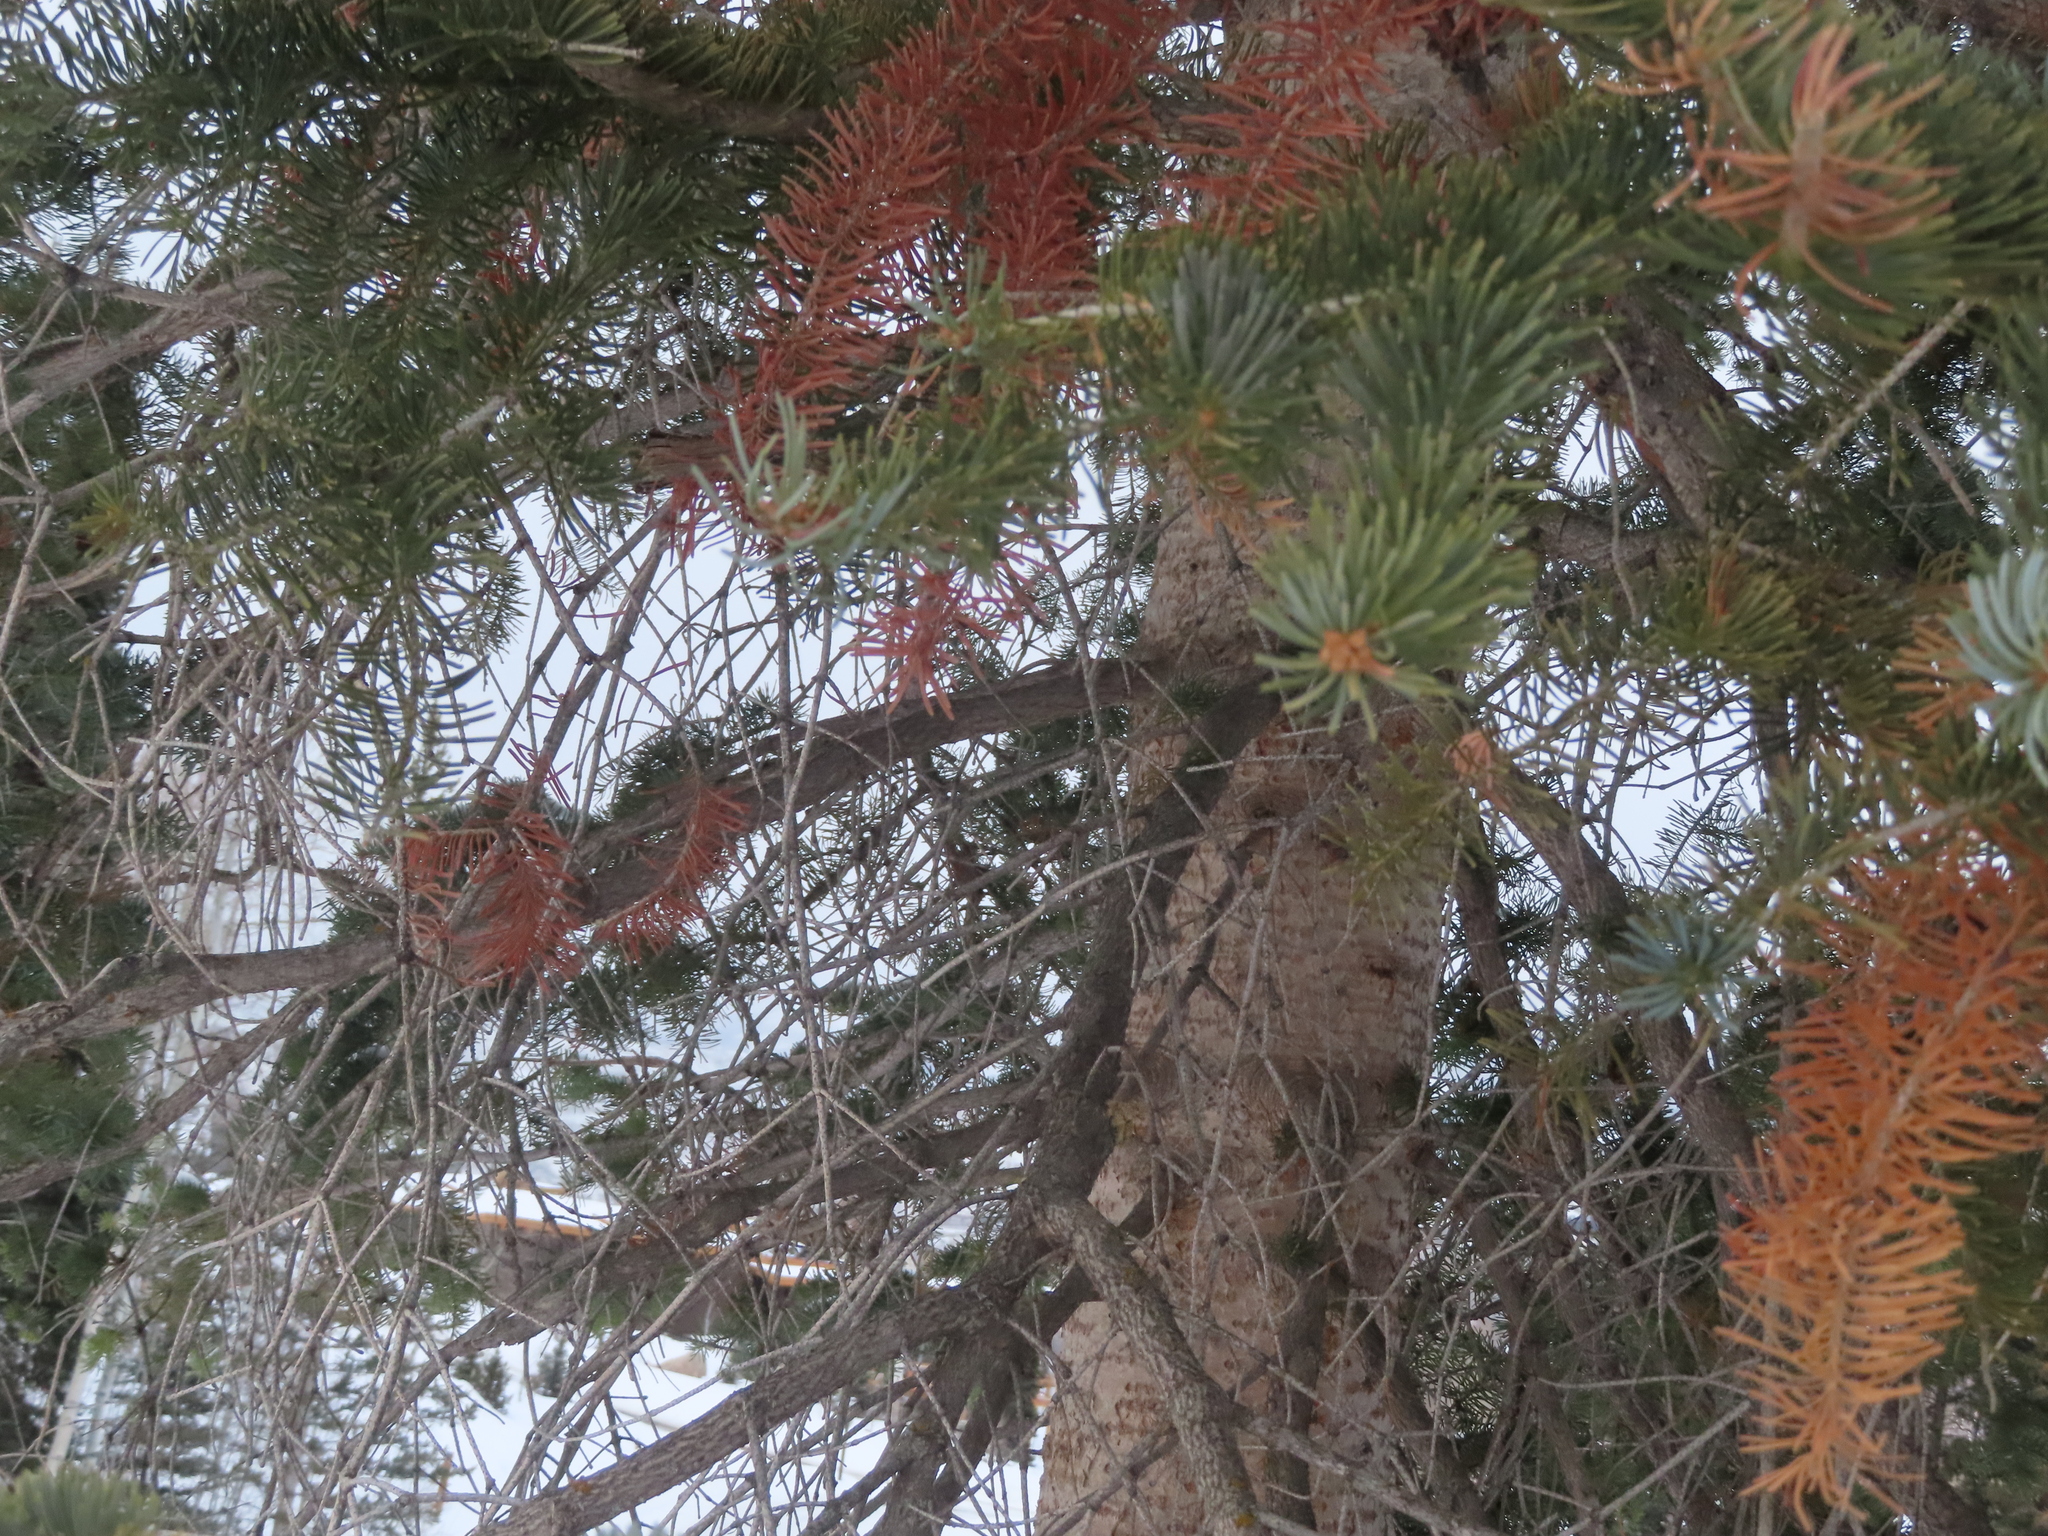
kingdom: Plantae
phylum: Tracheophyta
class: Pinopsida
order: Pinales
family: Pinaceae
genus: Abies
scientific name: Abies lasiocarpa
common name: Subalpine fir
